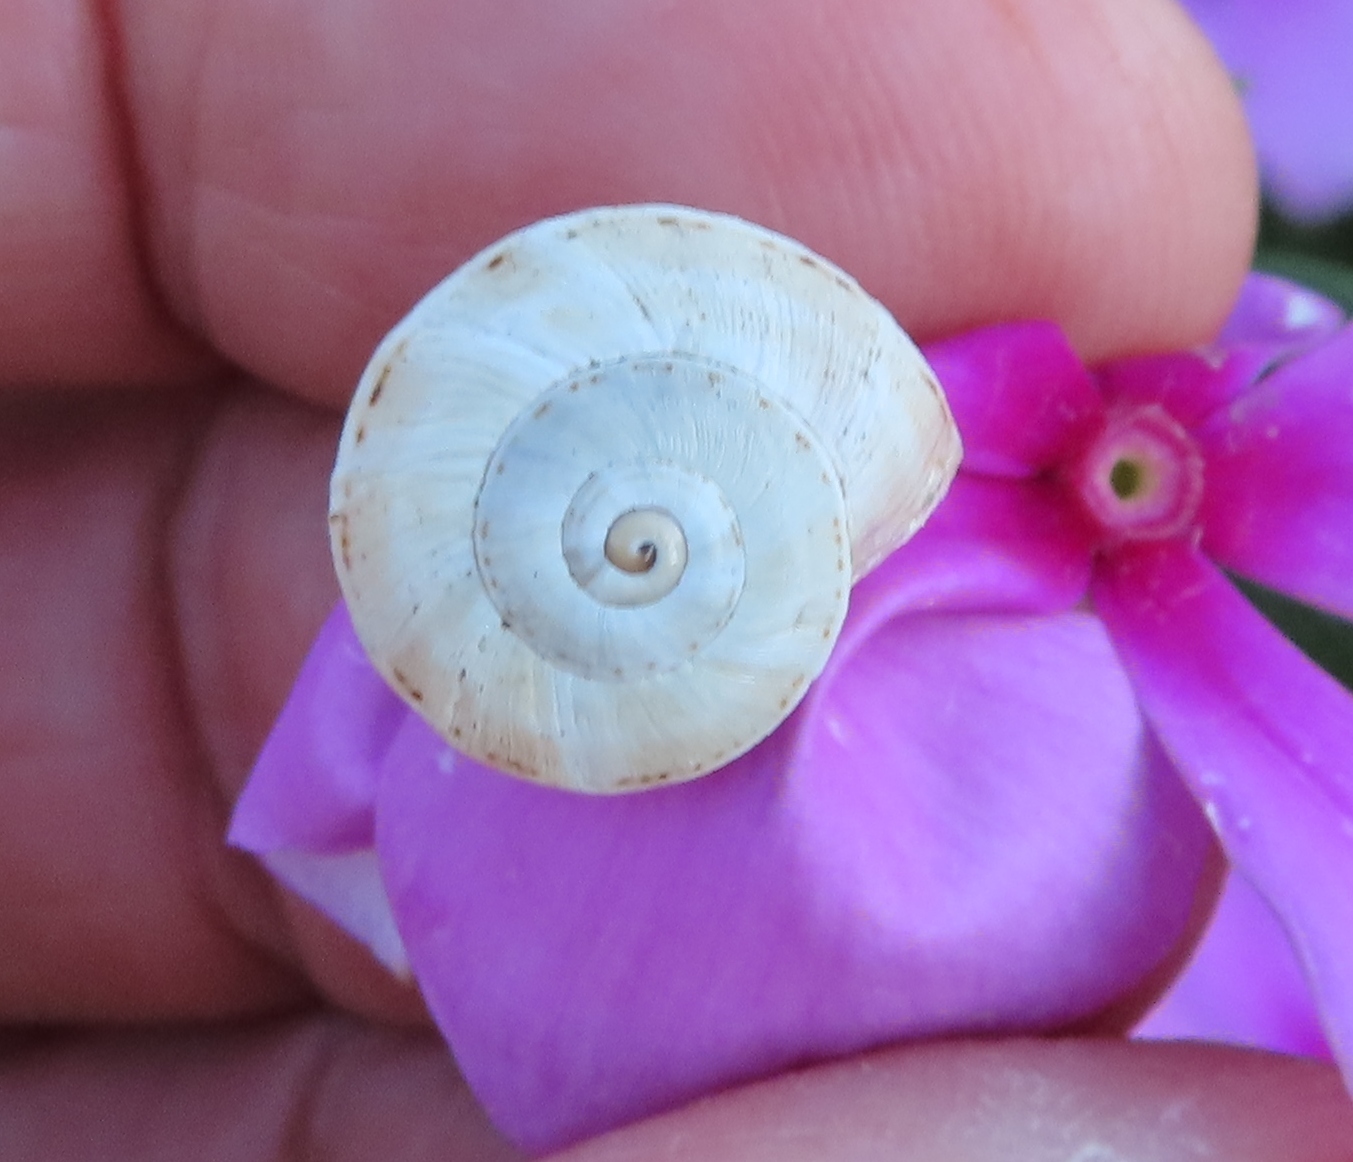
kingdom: Animalia
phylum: Mollusca
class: Gastropoda
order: Stylommatophora
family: Helicidae
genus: Theba
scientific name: Theba pisana
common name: White snail
